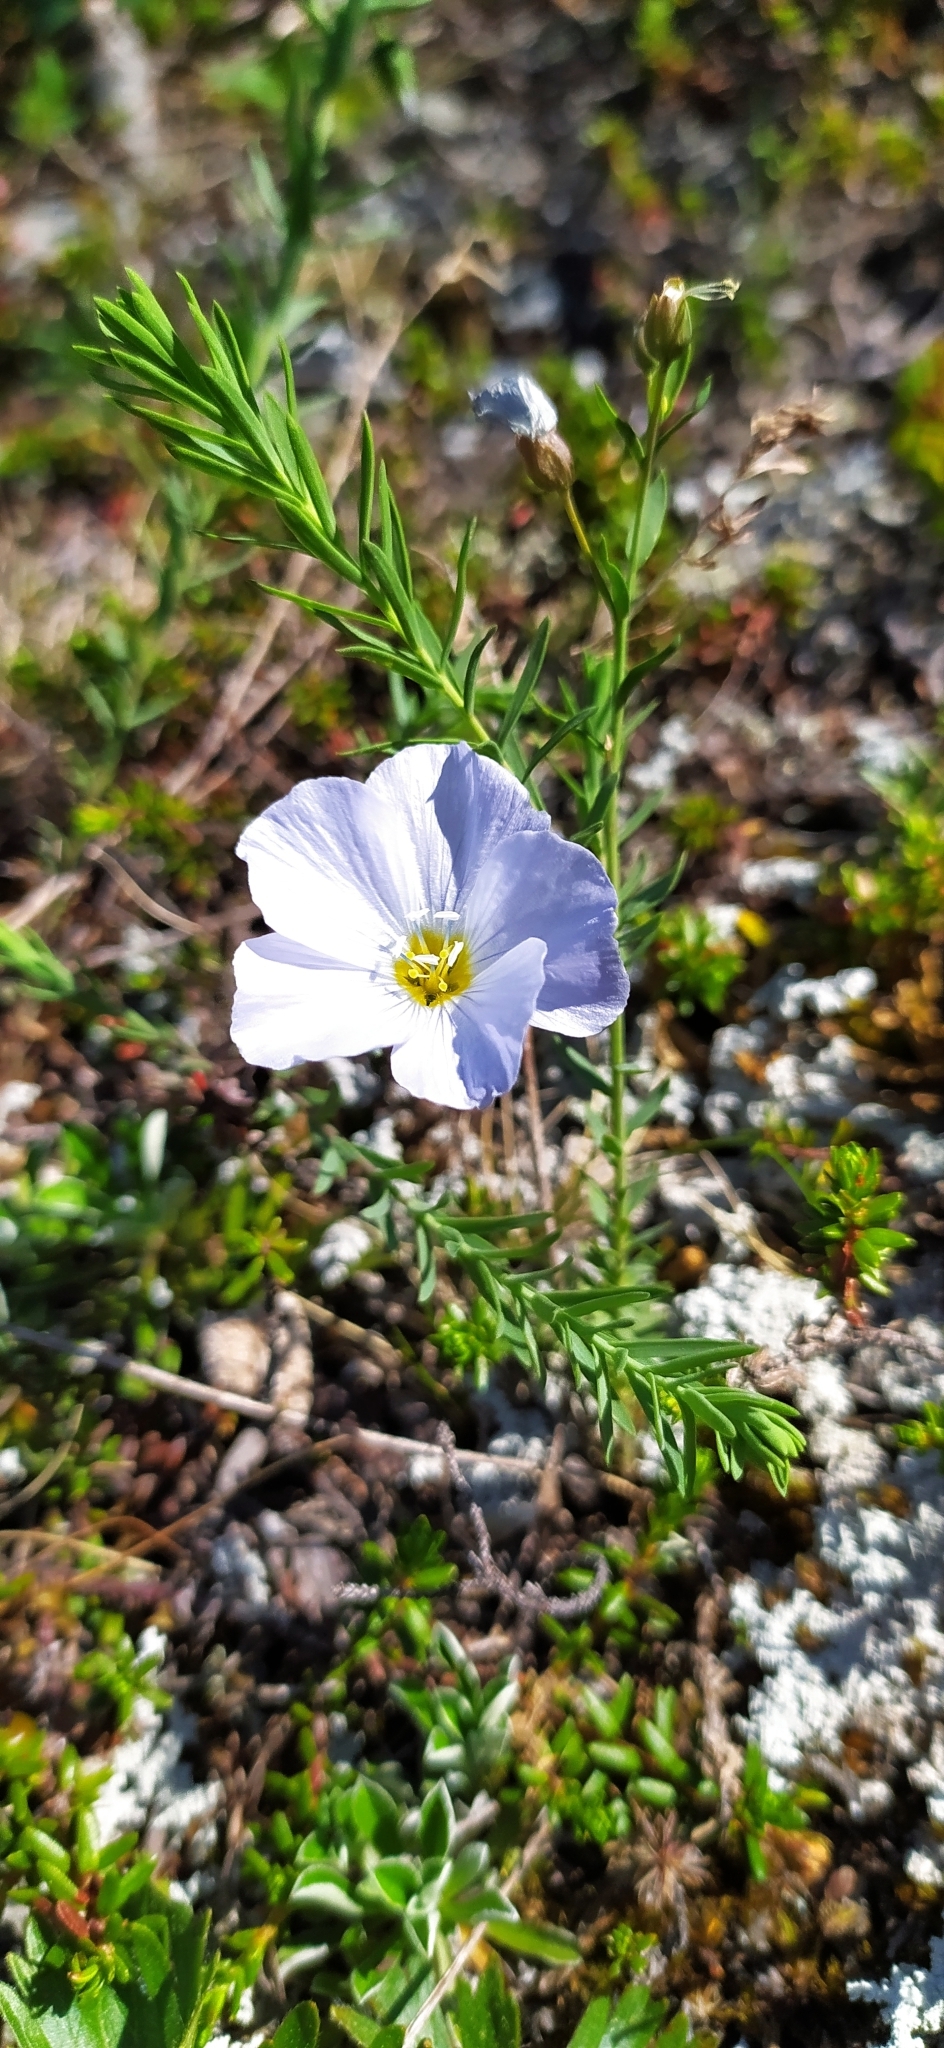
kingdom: Plantae
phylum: Tracheophyta
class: Magnoliopsida
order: Malpighiales
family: Linaceae
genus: Linum
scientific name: Linum komarovii
